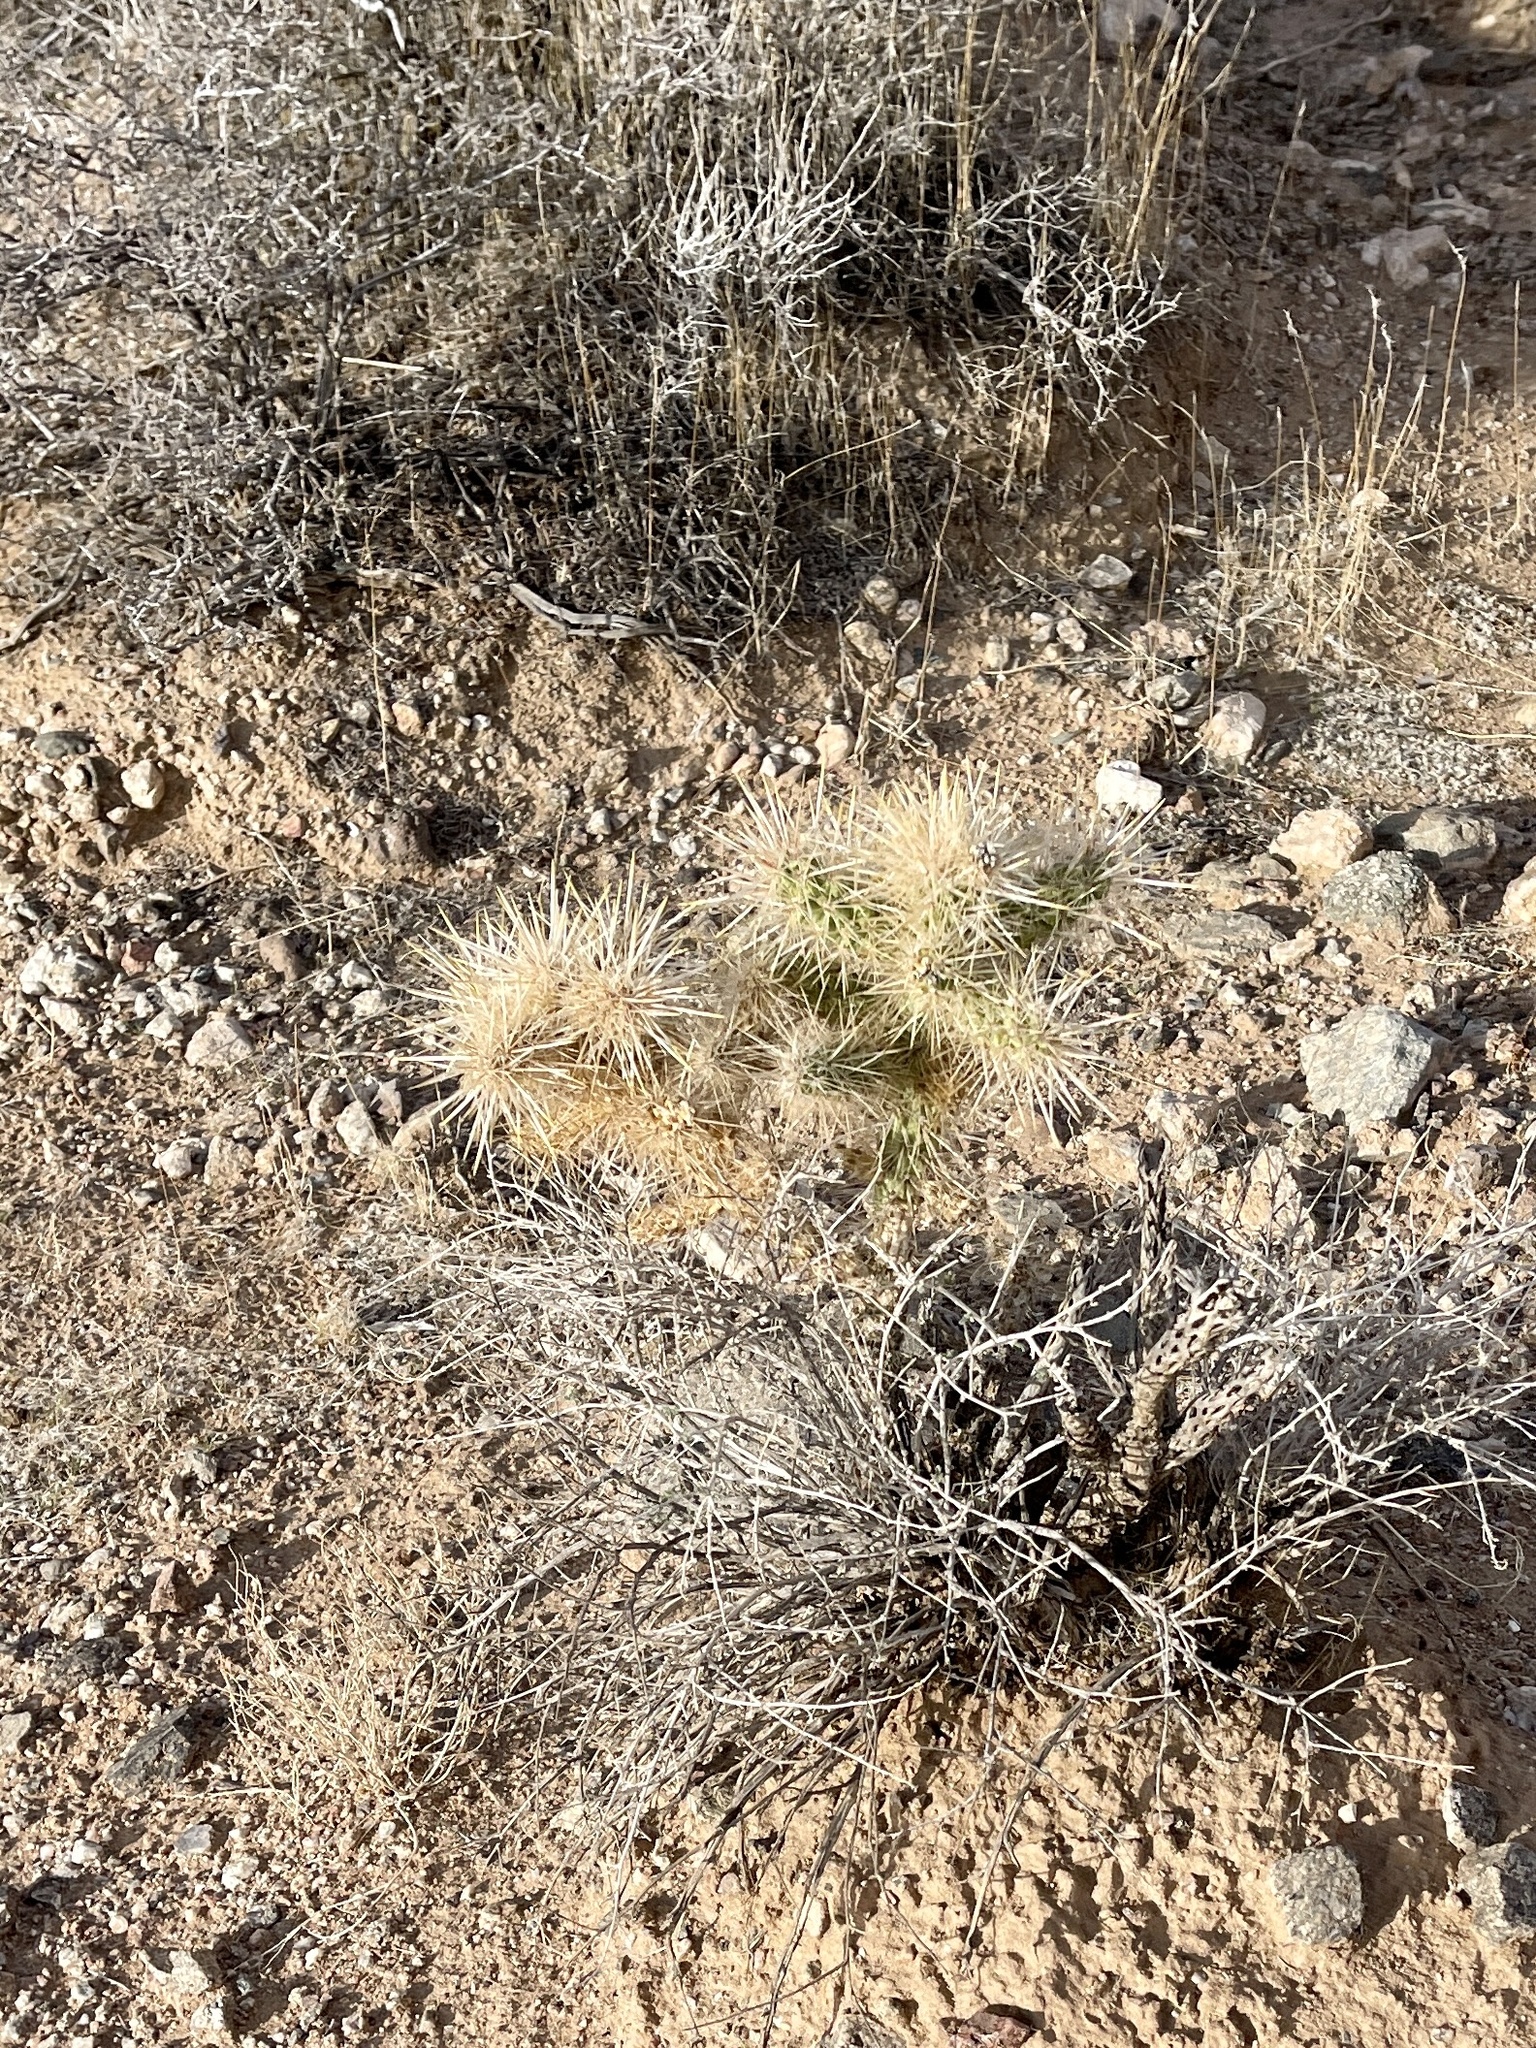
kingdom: Plantae
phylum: Tracheophyta
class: Magnoliopsida
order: Caryophyllales
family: Cactaceae
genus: Cylindropuntia
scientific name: Cylindropuntia echinocarpa
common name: Ground cholla
